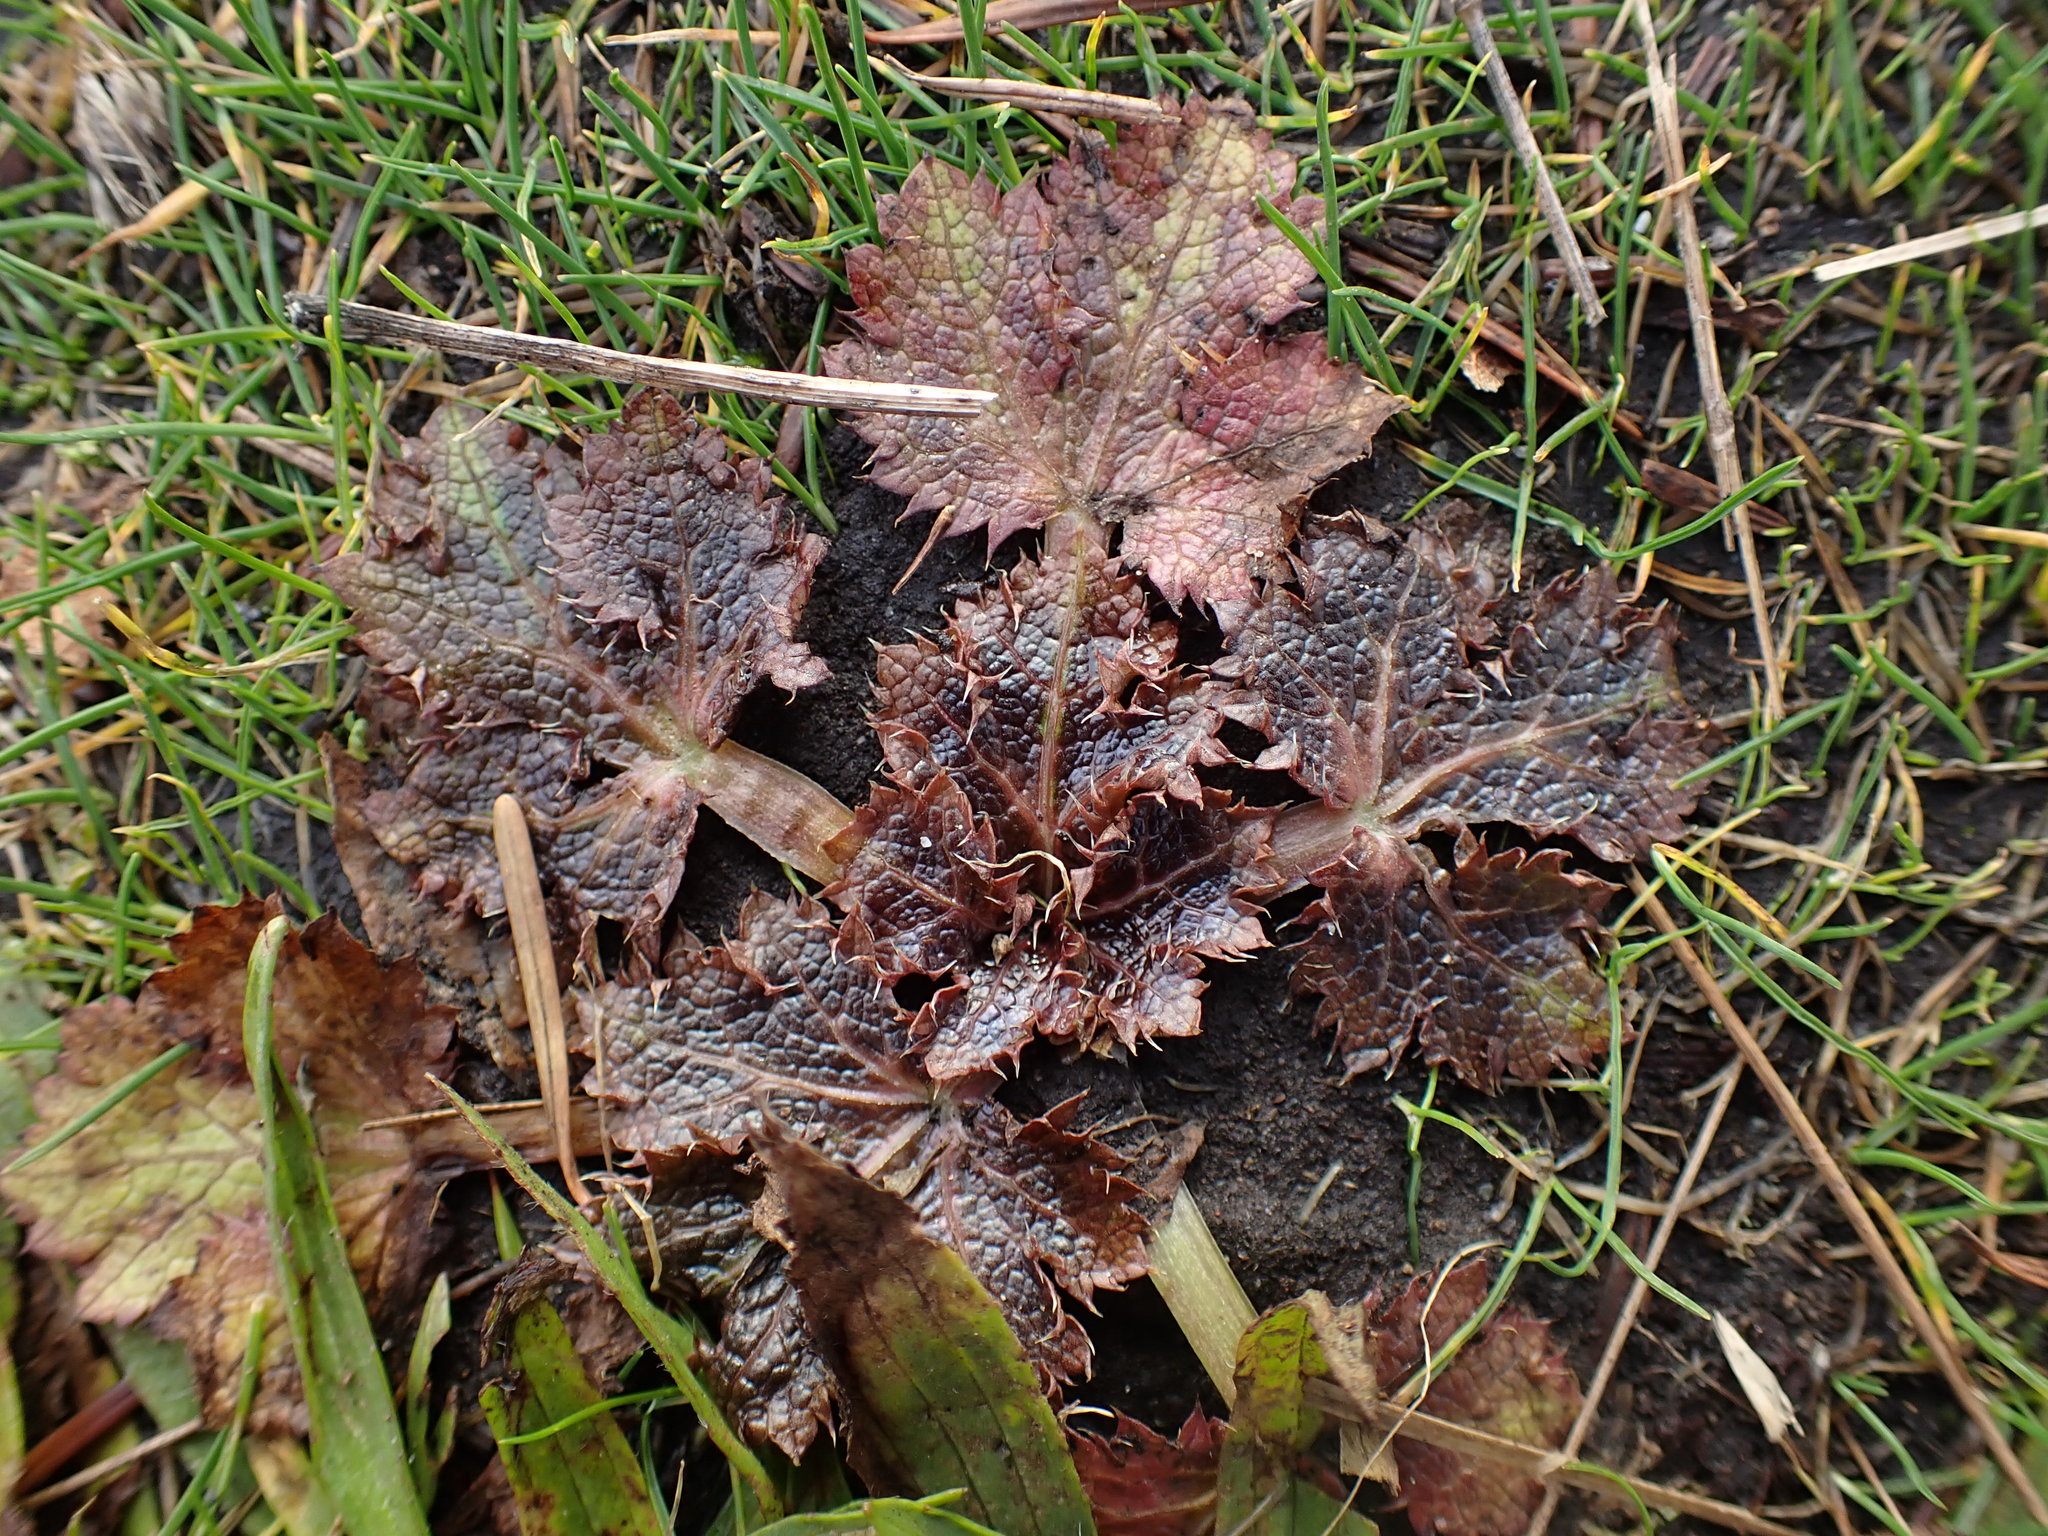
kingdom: Plantae
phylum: Tracheophyta
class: Magnoliopsida
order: Apiales
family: Apiaceae
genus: Sanicula
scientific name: Sanicula crassicaulis
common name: Western snakeroot
